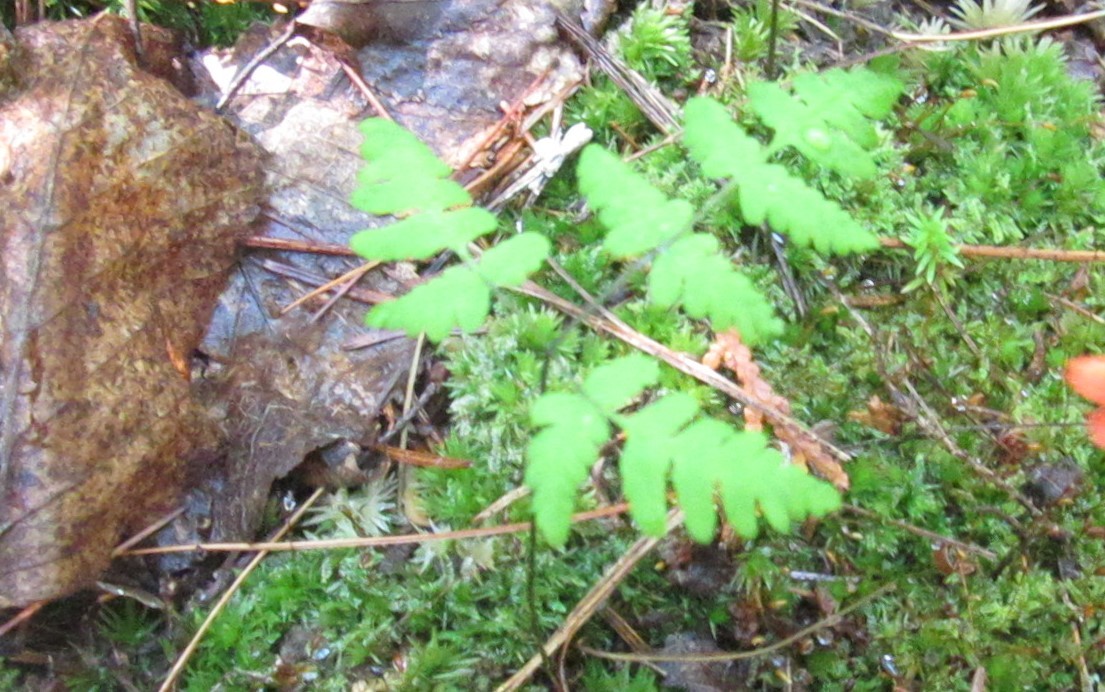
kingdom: Plantae
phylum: Tracheophyta
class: Polypodiopsida
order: Polypodiales
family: Cystopteridaceae
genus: Gymnocarpium
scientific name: Gymnocarpium dryopteris
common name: Oak fern
